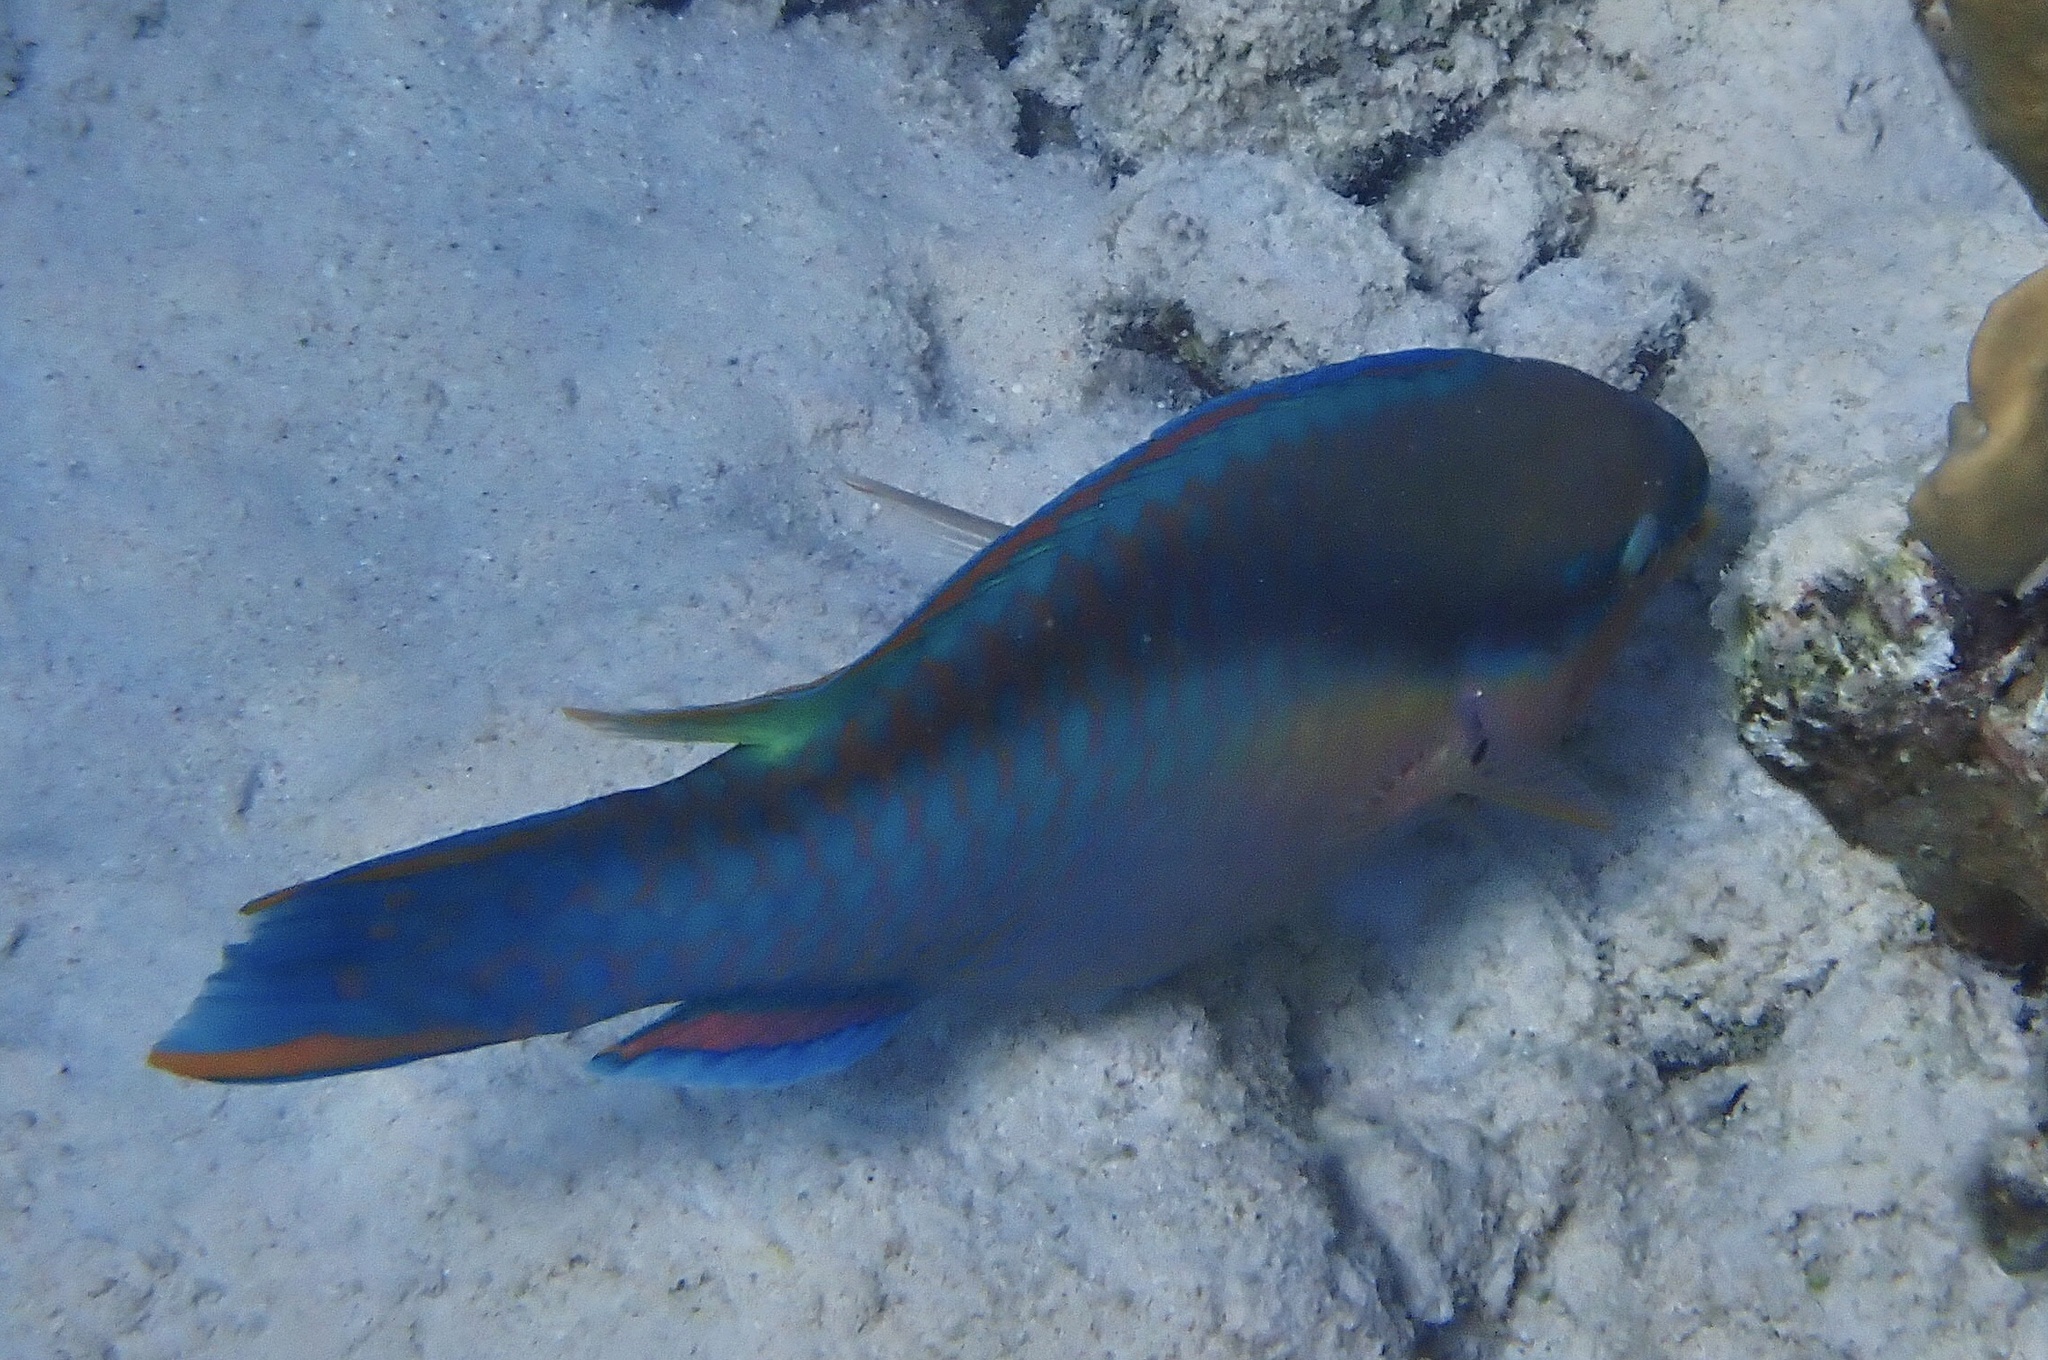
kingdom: Animalia
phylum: Chordata
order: Perciformes
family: Scaridae
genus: Scarus
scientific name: Scarus taeniopterus
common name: Princess parrotfish
